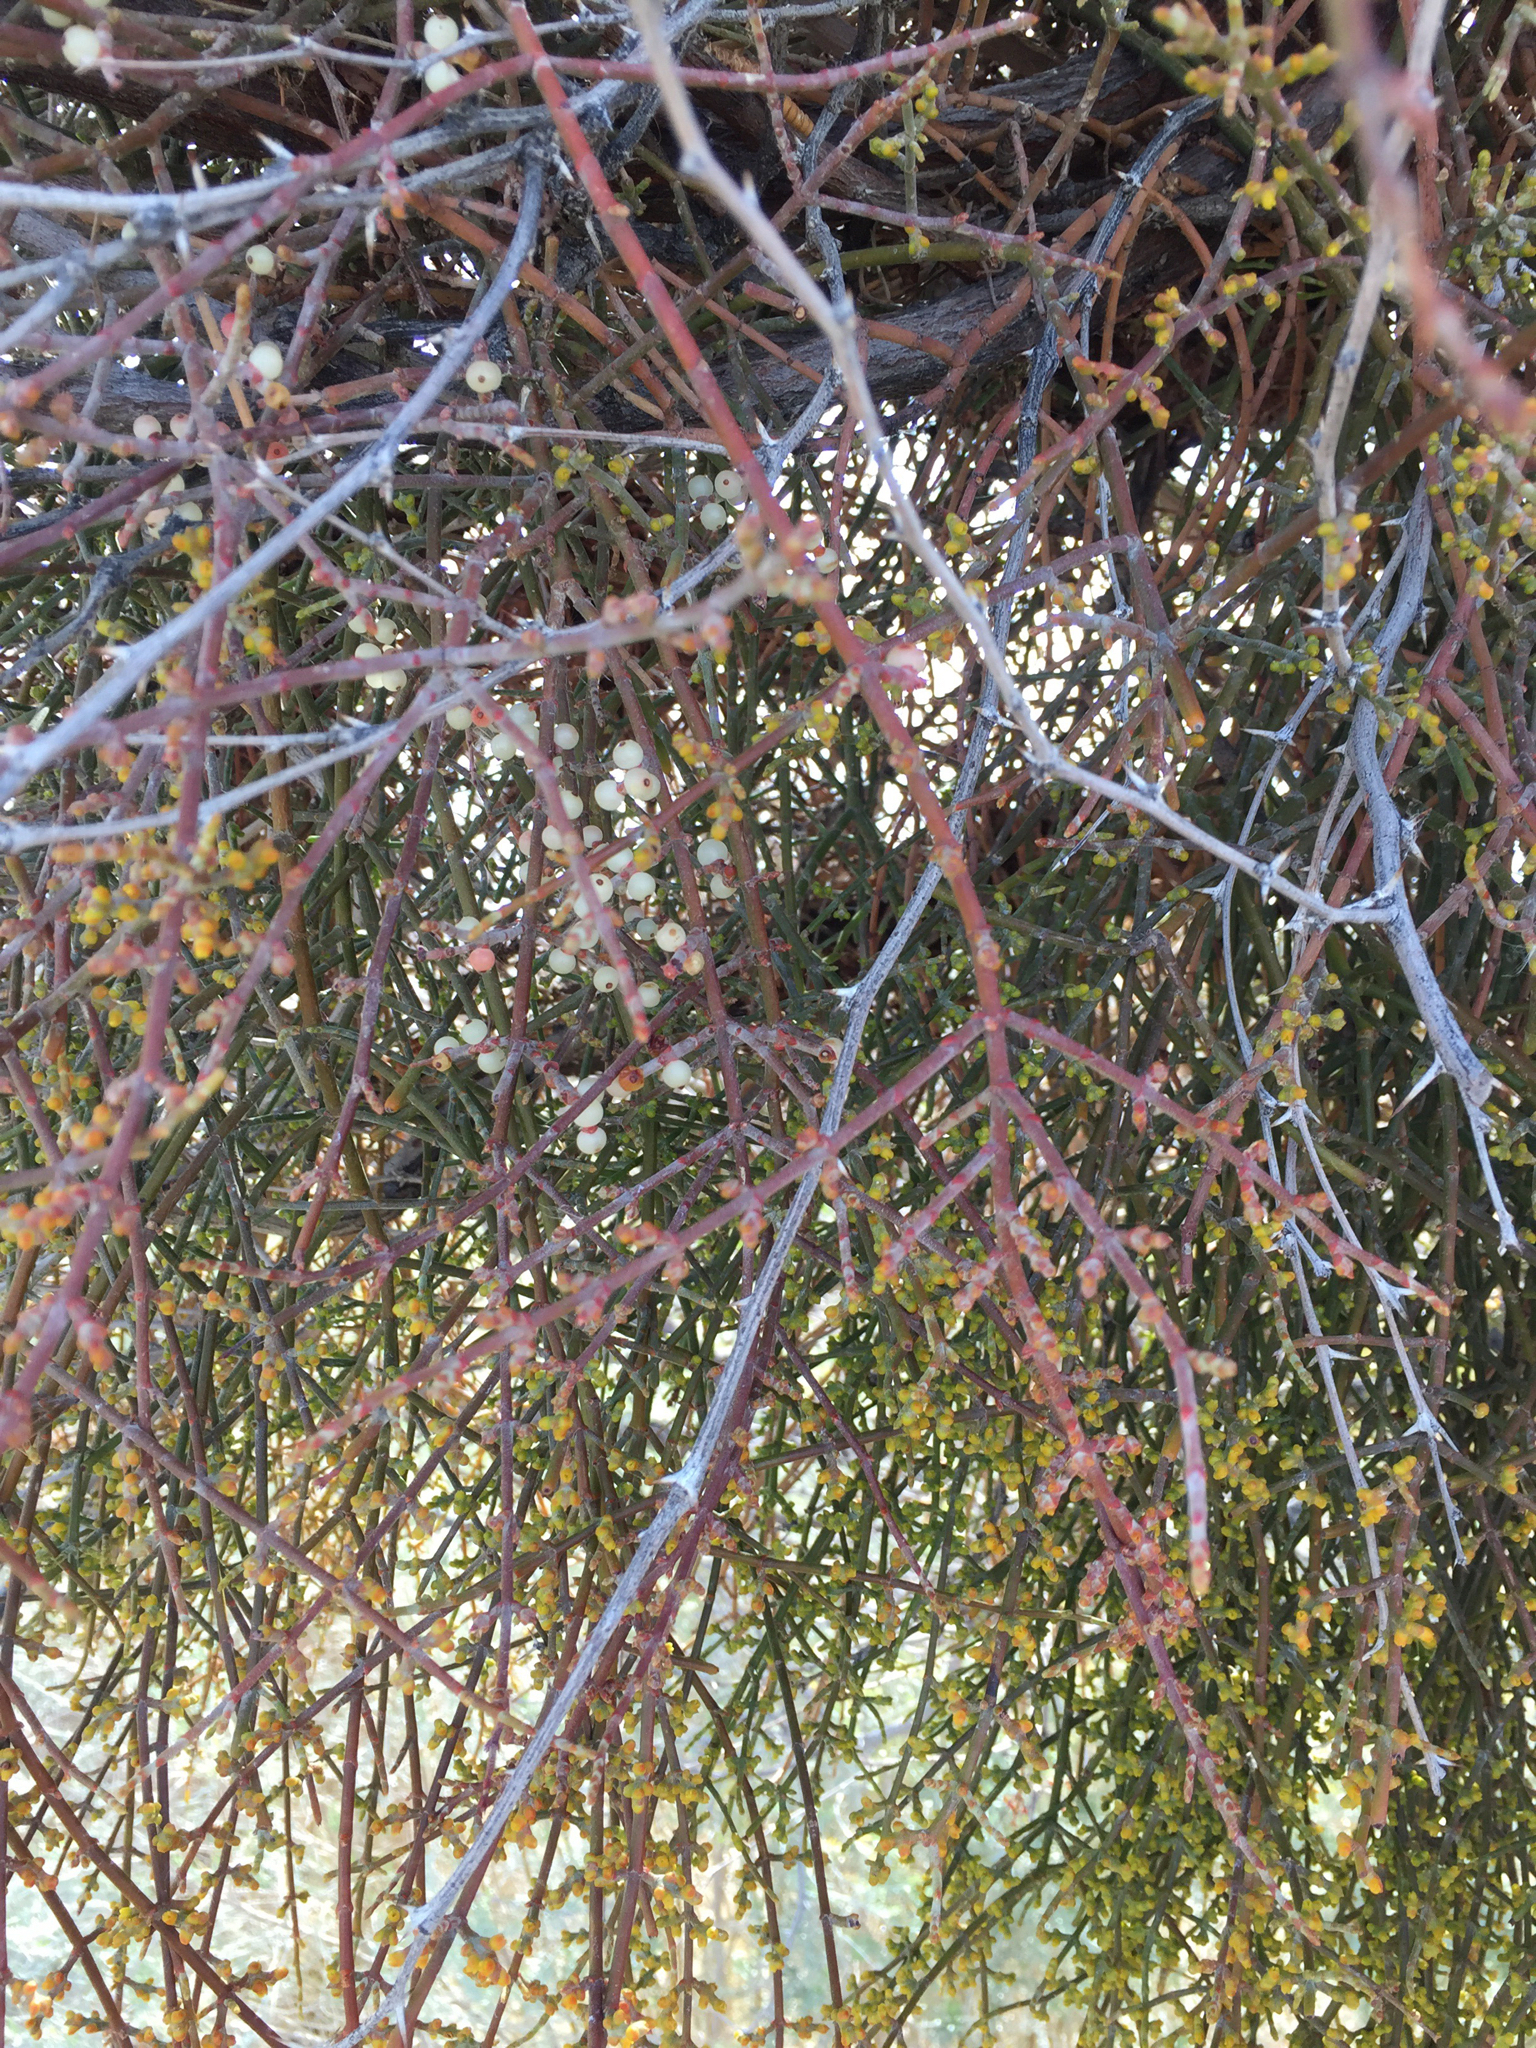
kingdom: Plantae
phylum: Tracheophyta
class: Magnoliopsida
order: Santalales
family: Viscaceae
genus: Phoradendron
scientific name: Phoradendron californicum
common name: Acacia mistletoe
